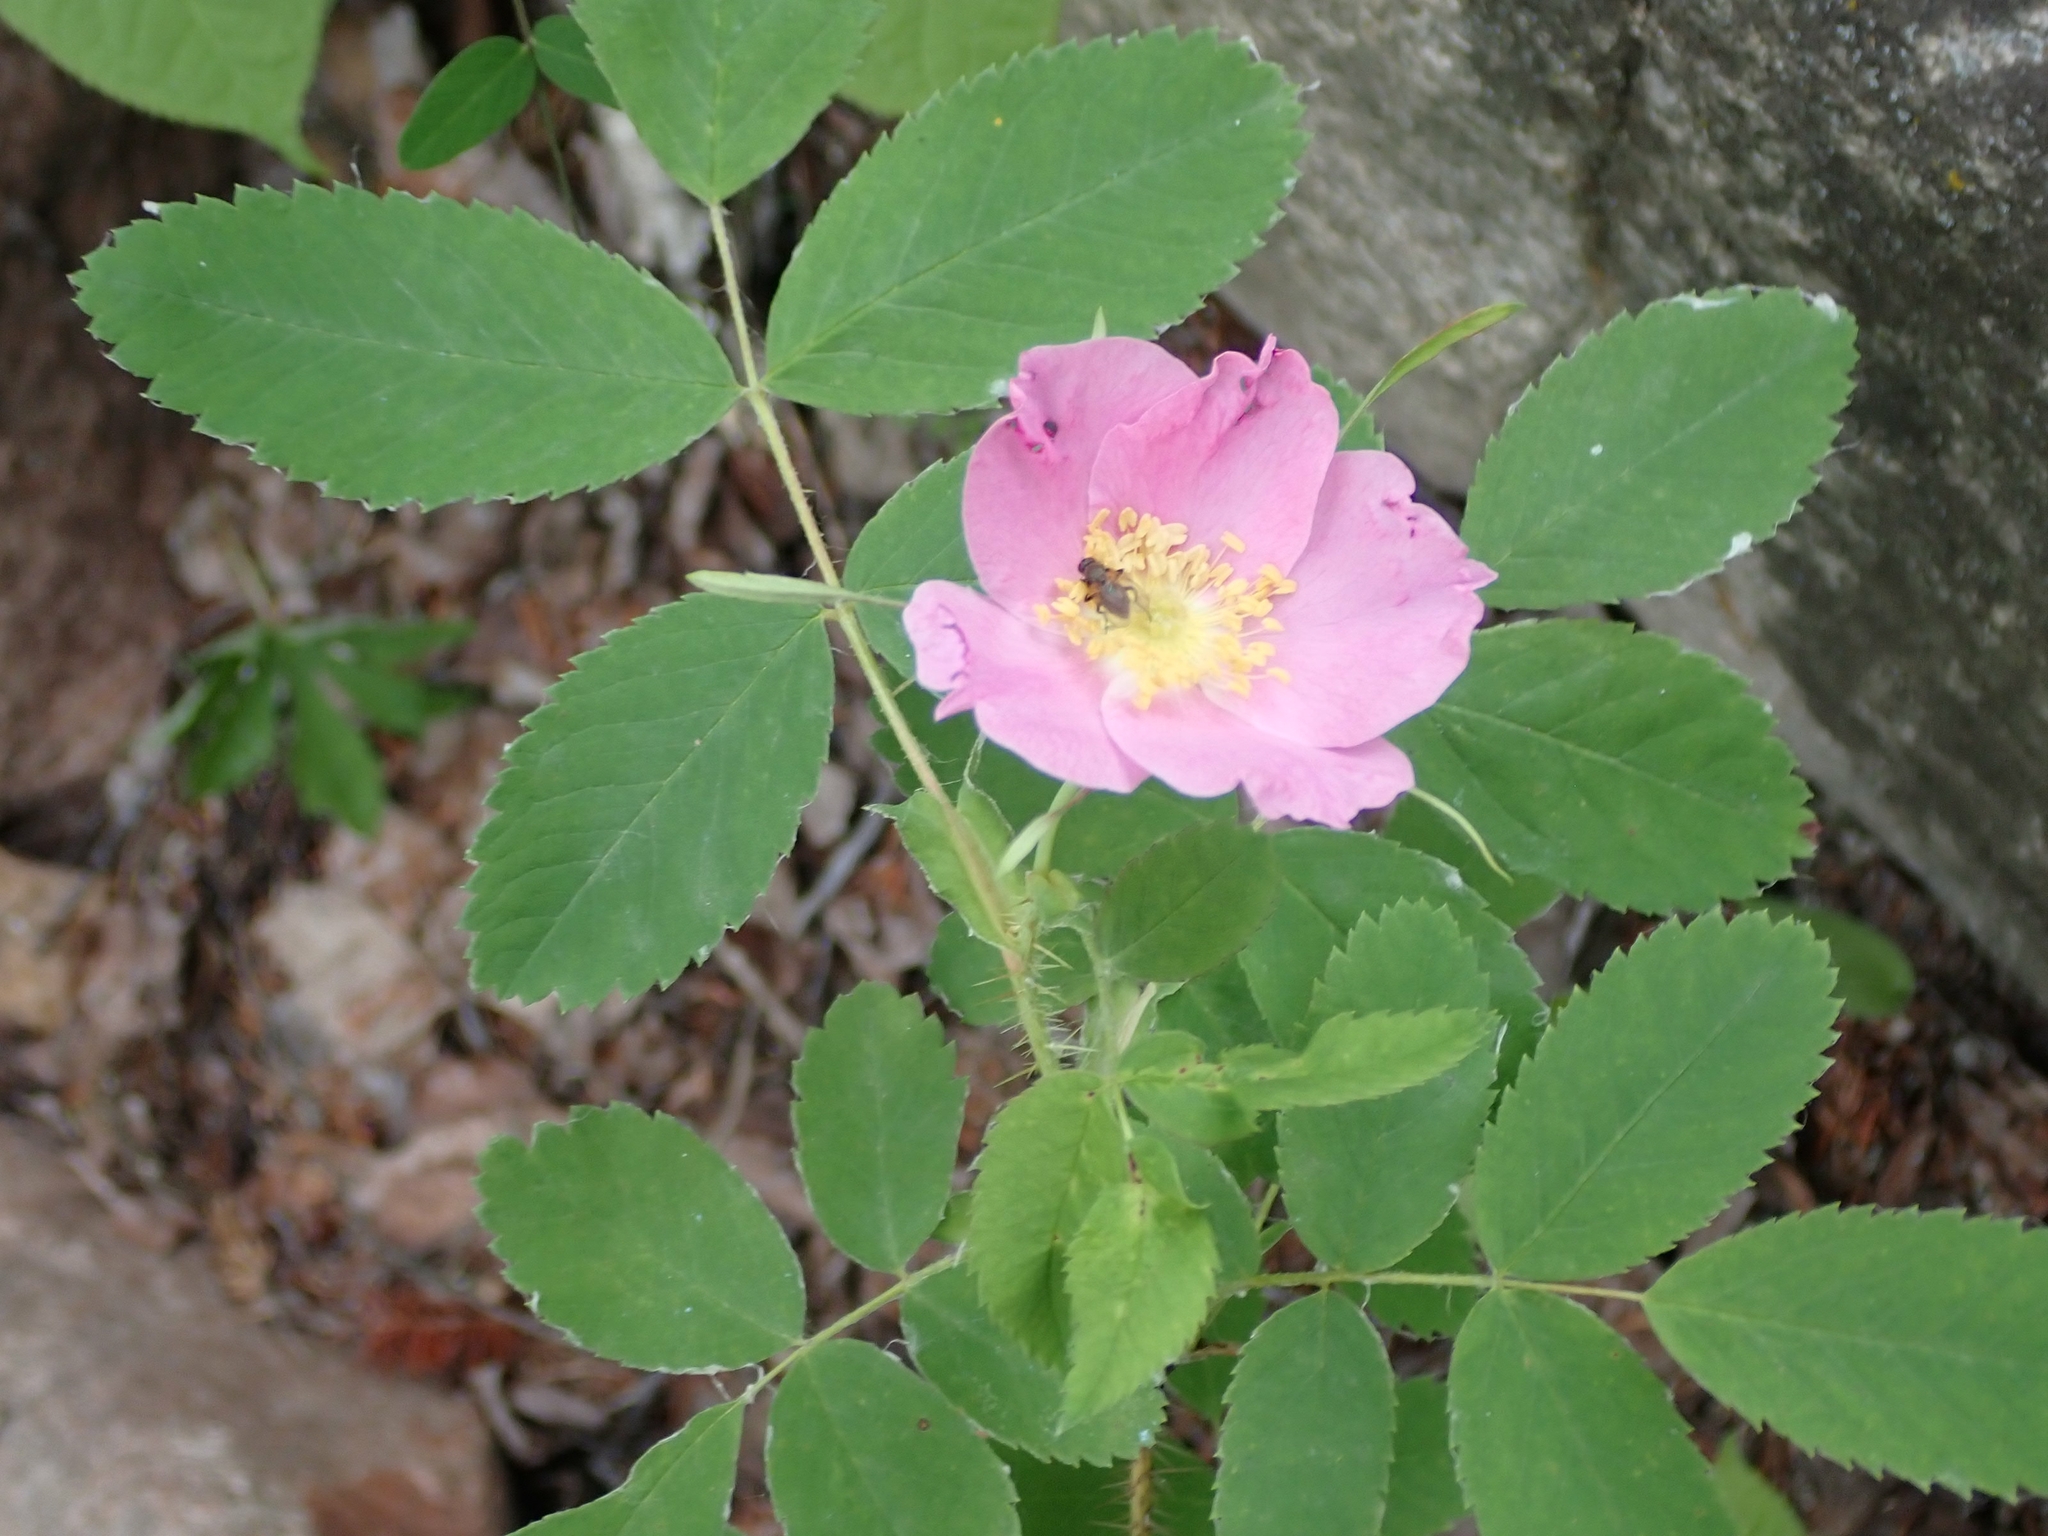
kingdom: Plantae
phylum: Tracheophyta
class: Magnoliopsida
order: Rosales
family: Rosaceae
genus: Rosa
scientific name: Rosa woodsii
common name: Woods's rose
